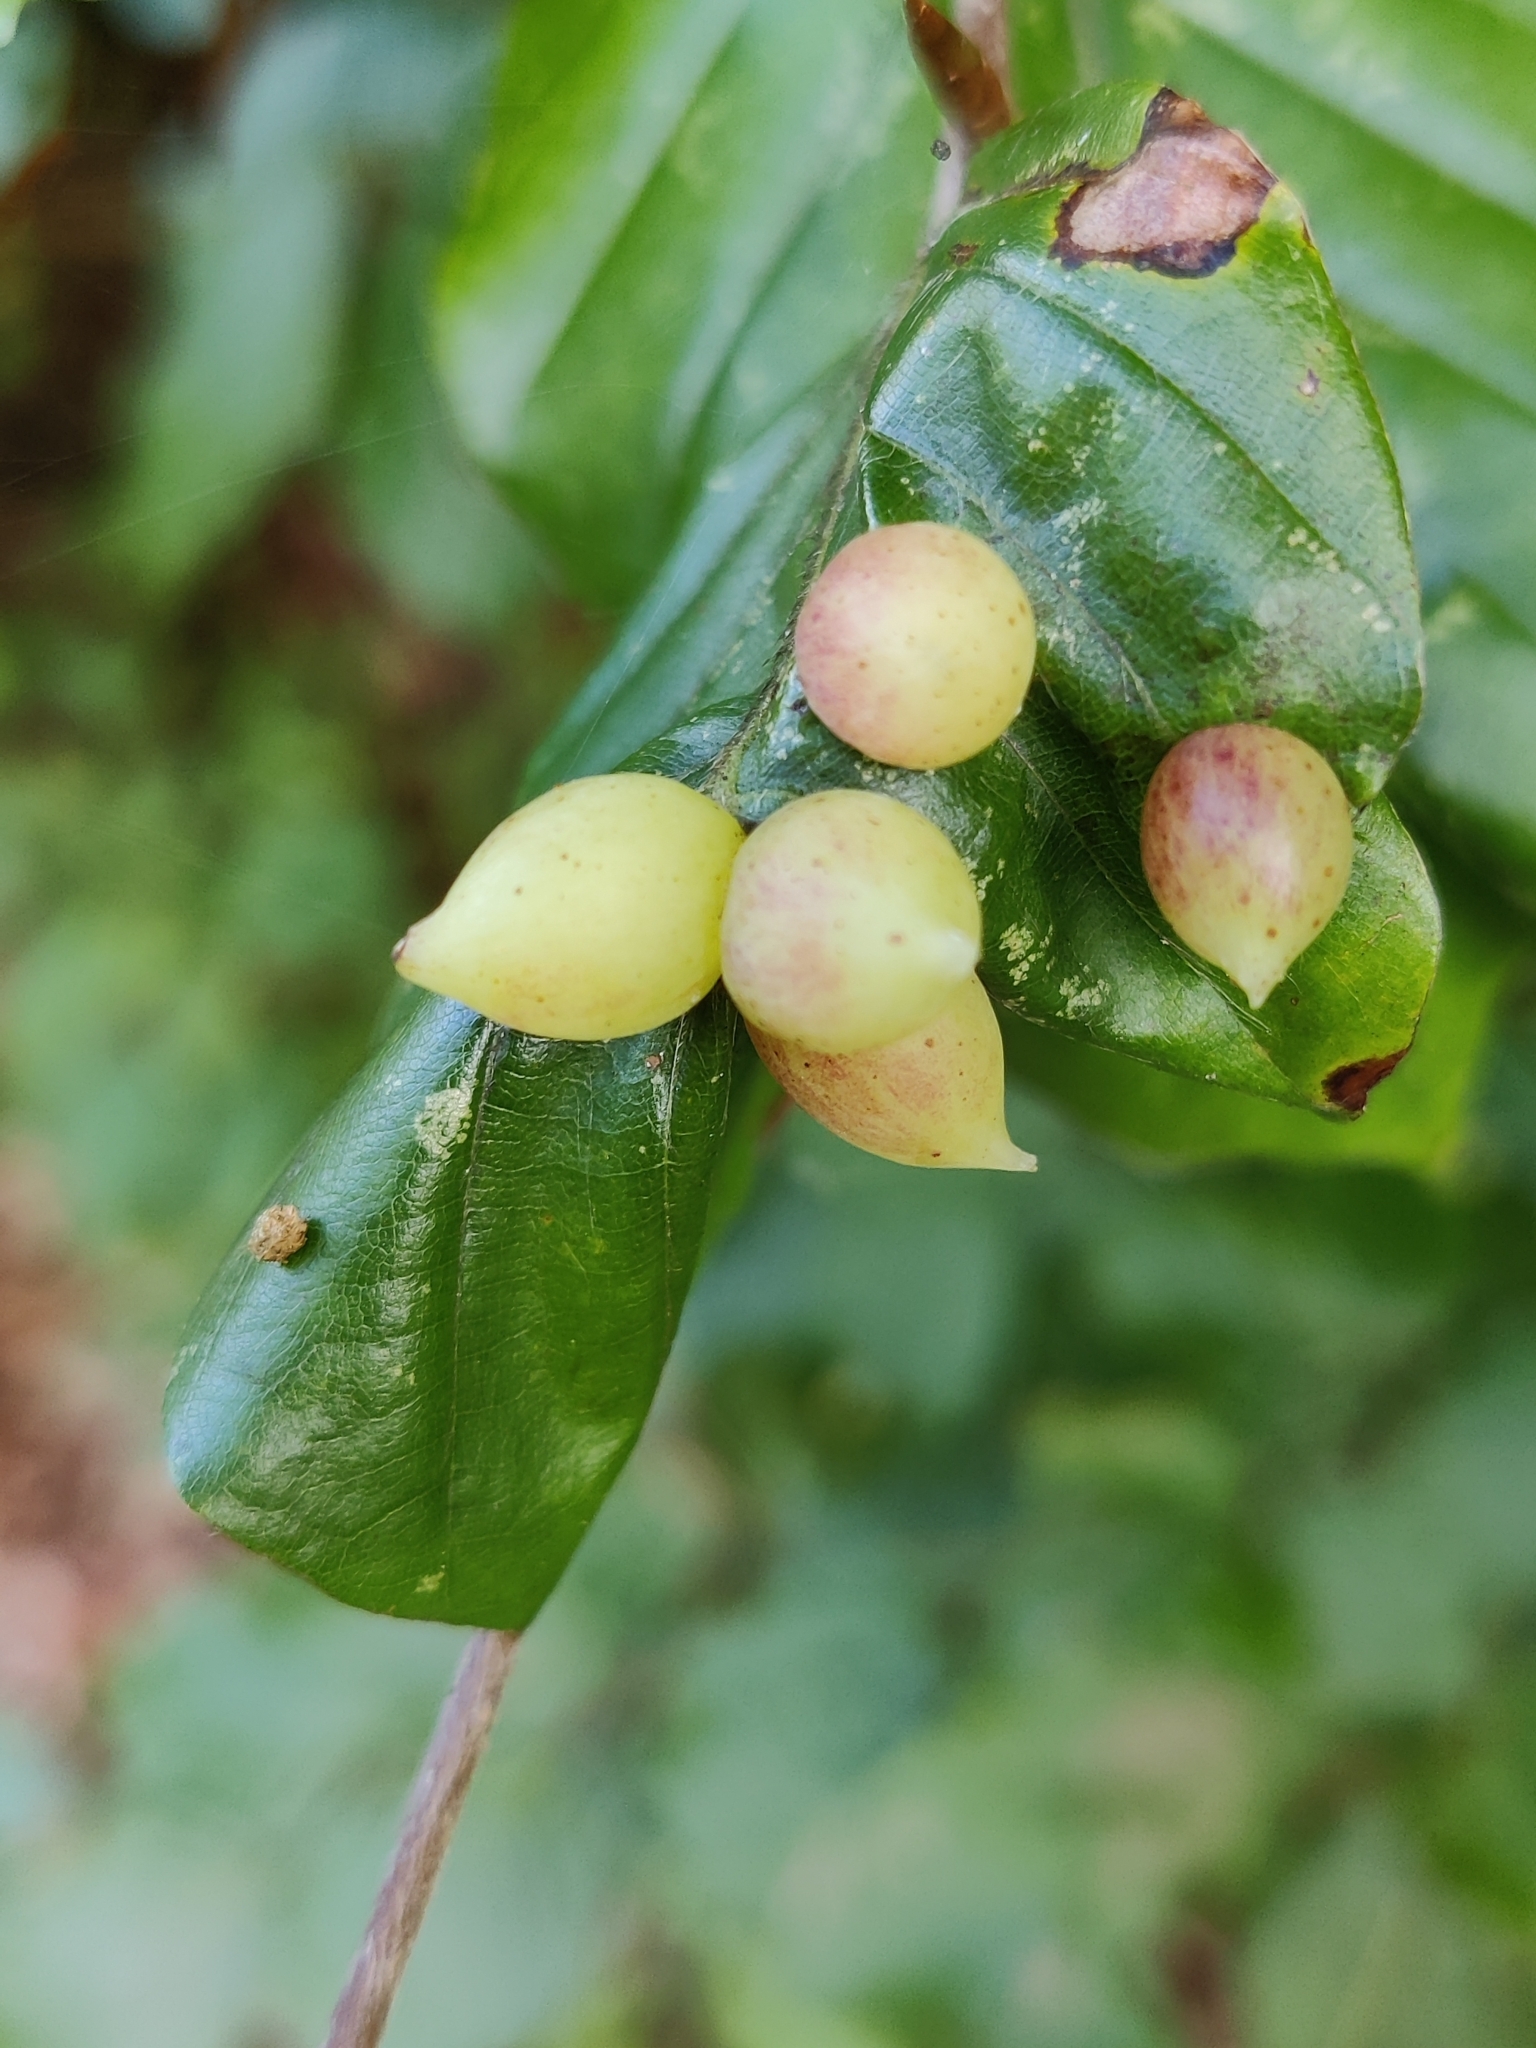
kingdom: Animalia
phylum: Arthropoda
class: Insecta
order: Diptera
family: Cecidomyiidae
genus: Mikiola
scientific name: Mikiola fagi
